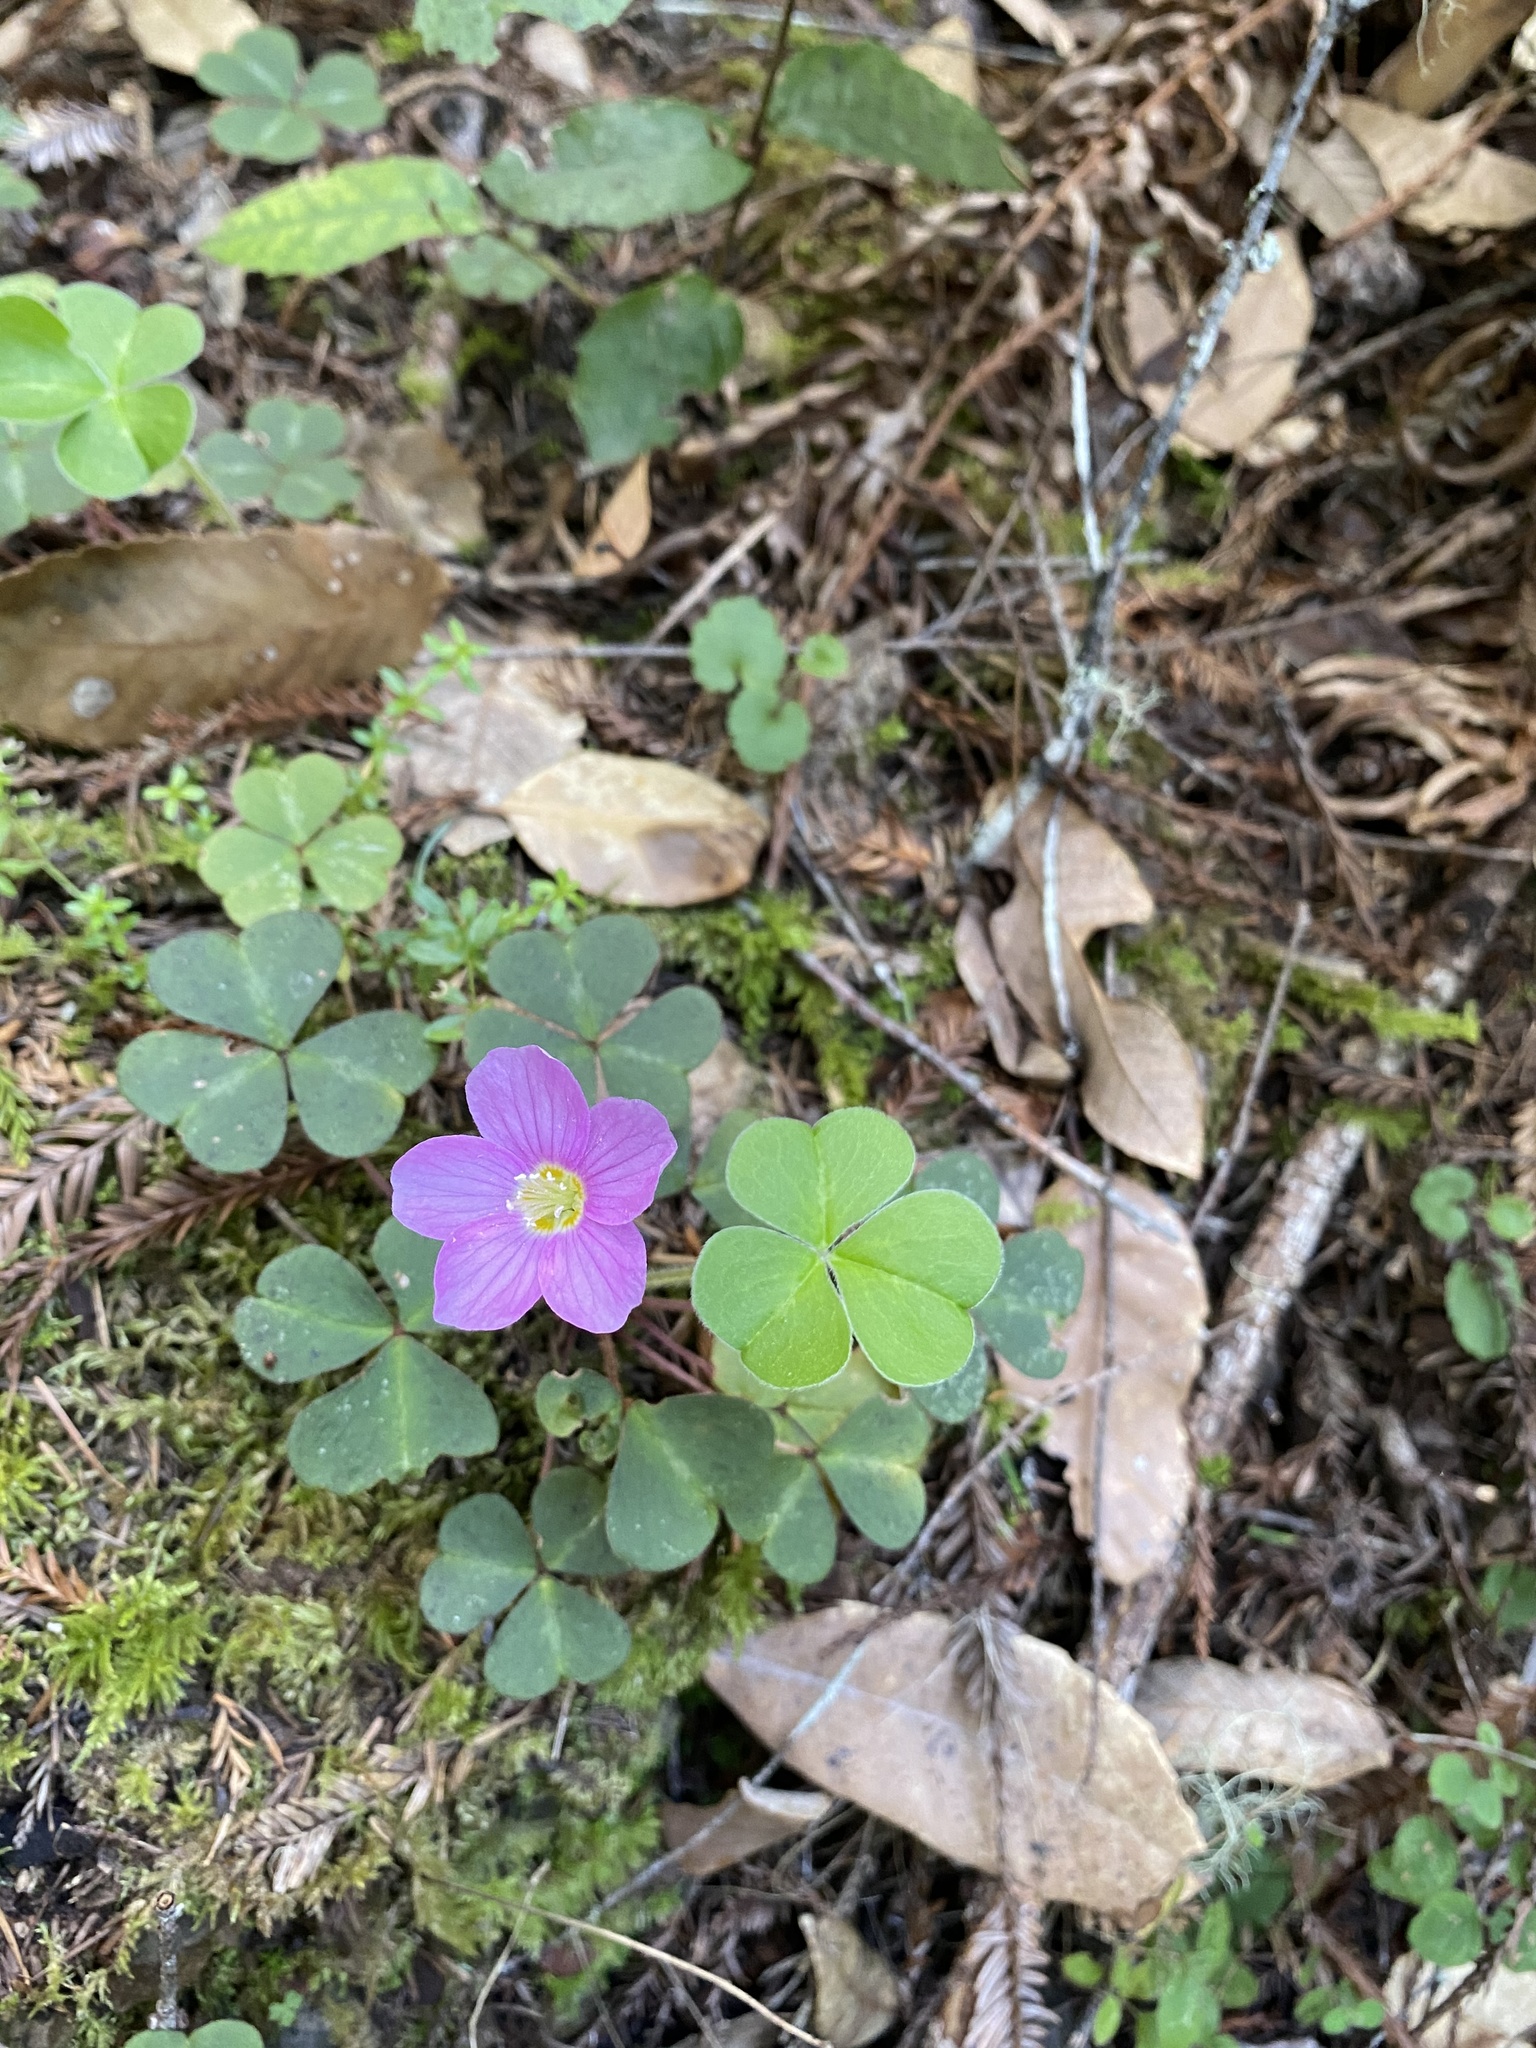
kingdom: Plantae
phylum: Tracheophyta
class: Magnoliopsida
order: Oxalidales
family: Oxalidaceae
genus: Oxalis
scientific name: Oxalis oregana
